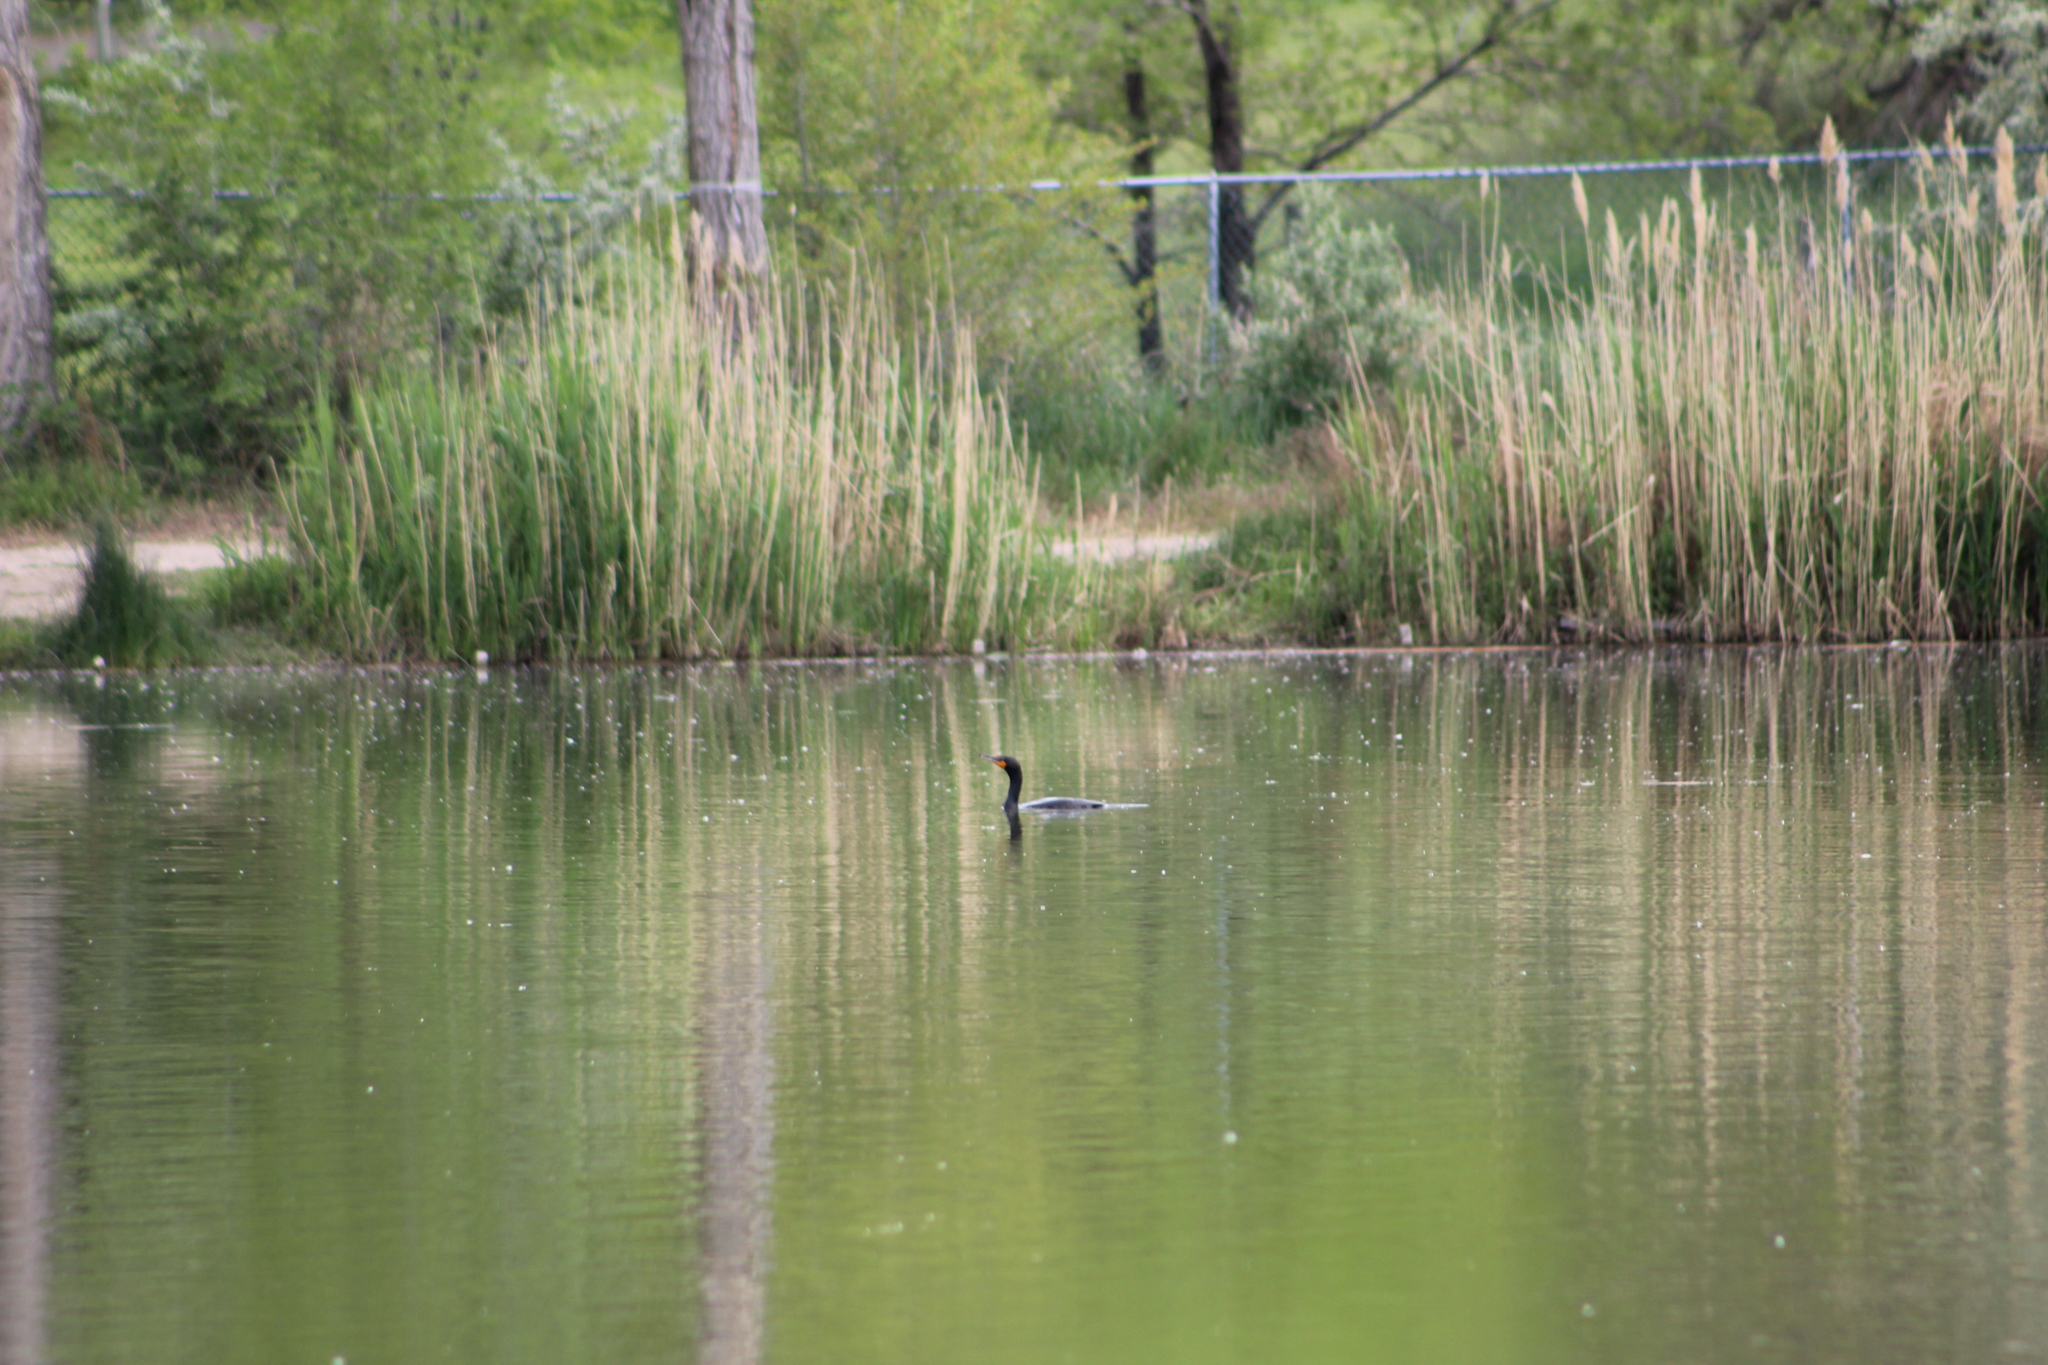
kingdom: Animalia
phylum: Chordata
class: Aves
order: Suliformes
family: Phalacrocoracidae
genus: Phalacrocorax
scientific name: Phalacrocorax auritus
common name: Double-crested cormorant
